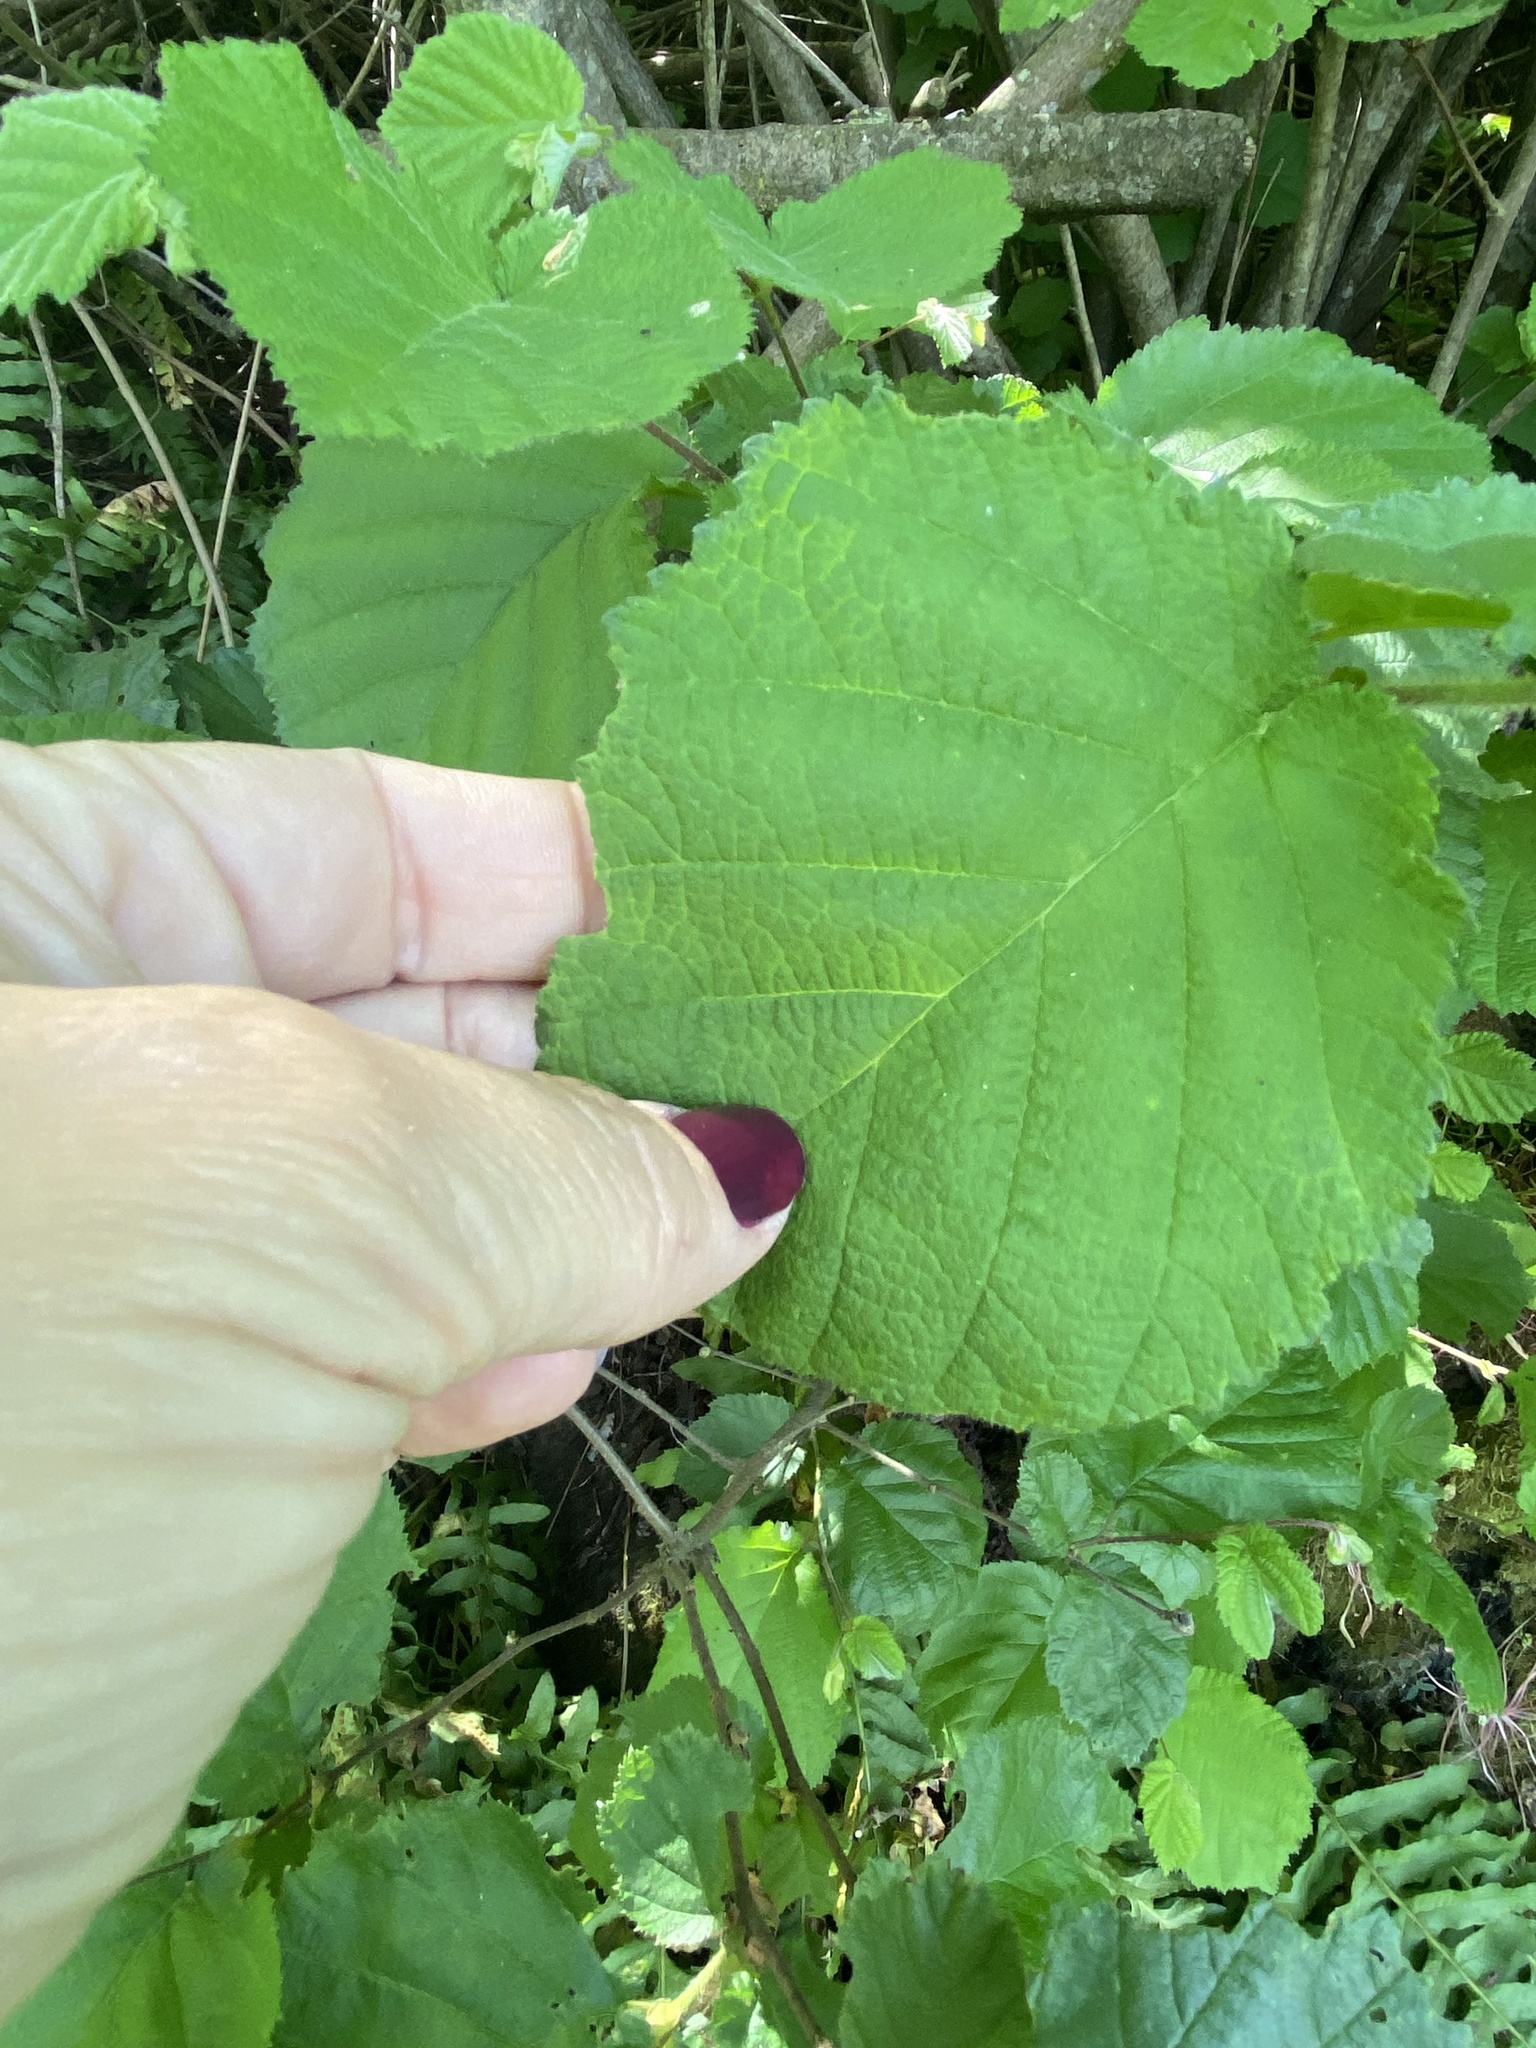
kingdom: Plantae
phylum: Tracheophyta
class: Magnoliopsida
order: Fagales
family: Betulaceae
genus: Corylus
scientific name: Corylus cornuta
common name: Beaked hazel
